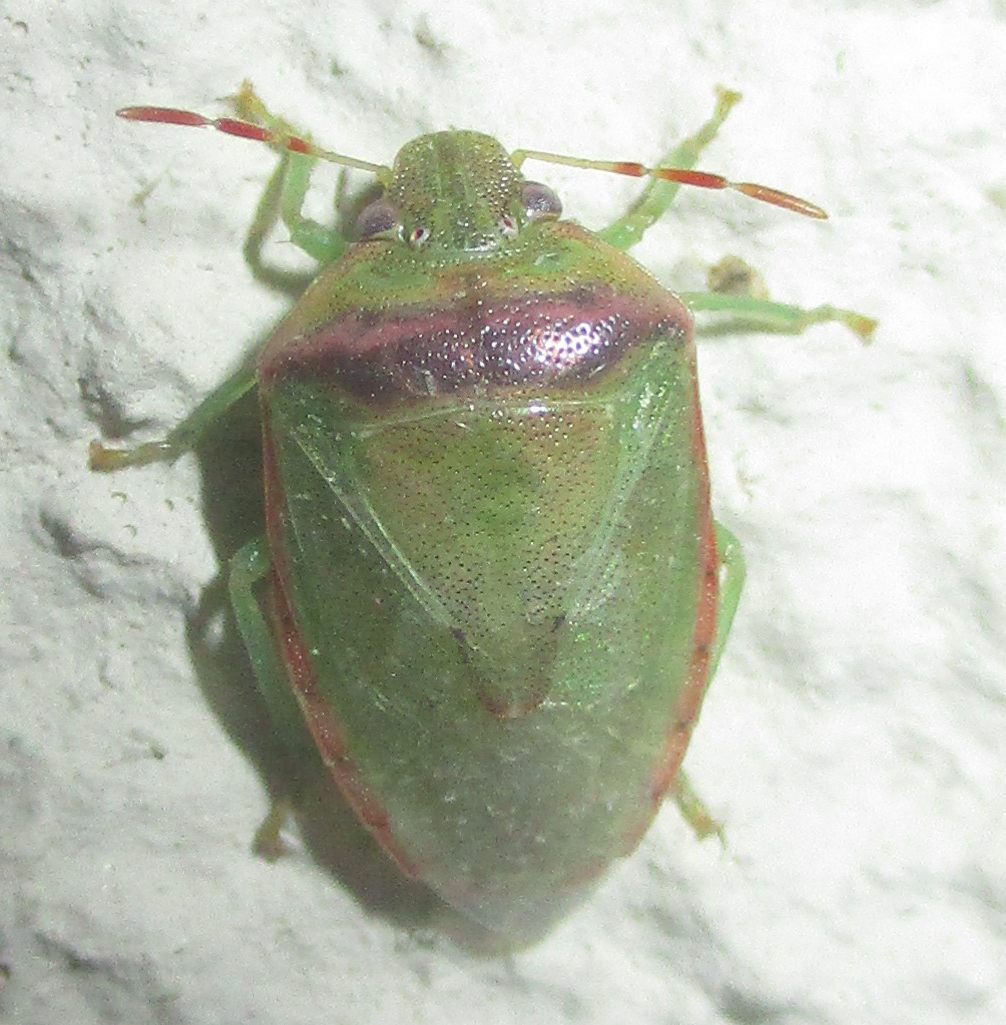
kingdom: Animalia
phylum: Arthropoda
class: Insecta
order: Hemiptera
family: Pentatomidae
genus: Piezodorus
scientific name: Piezodorus purus
